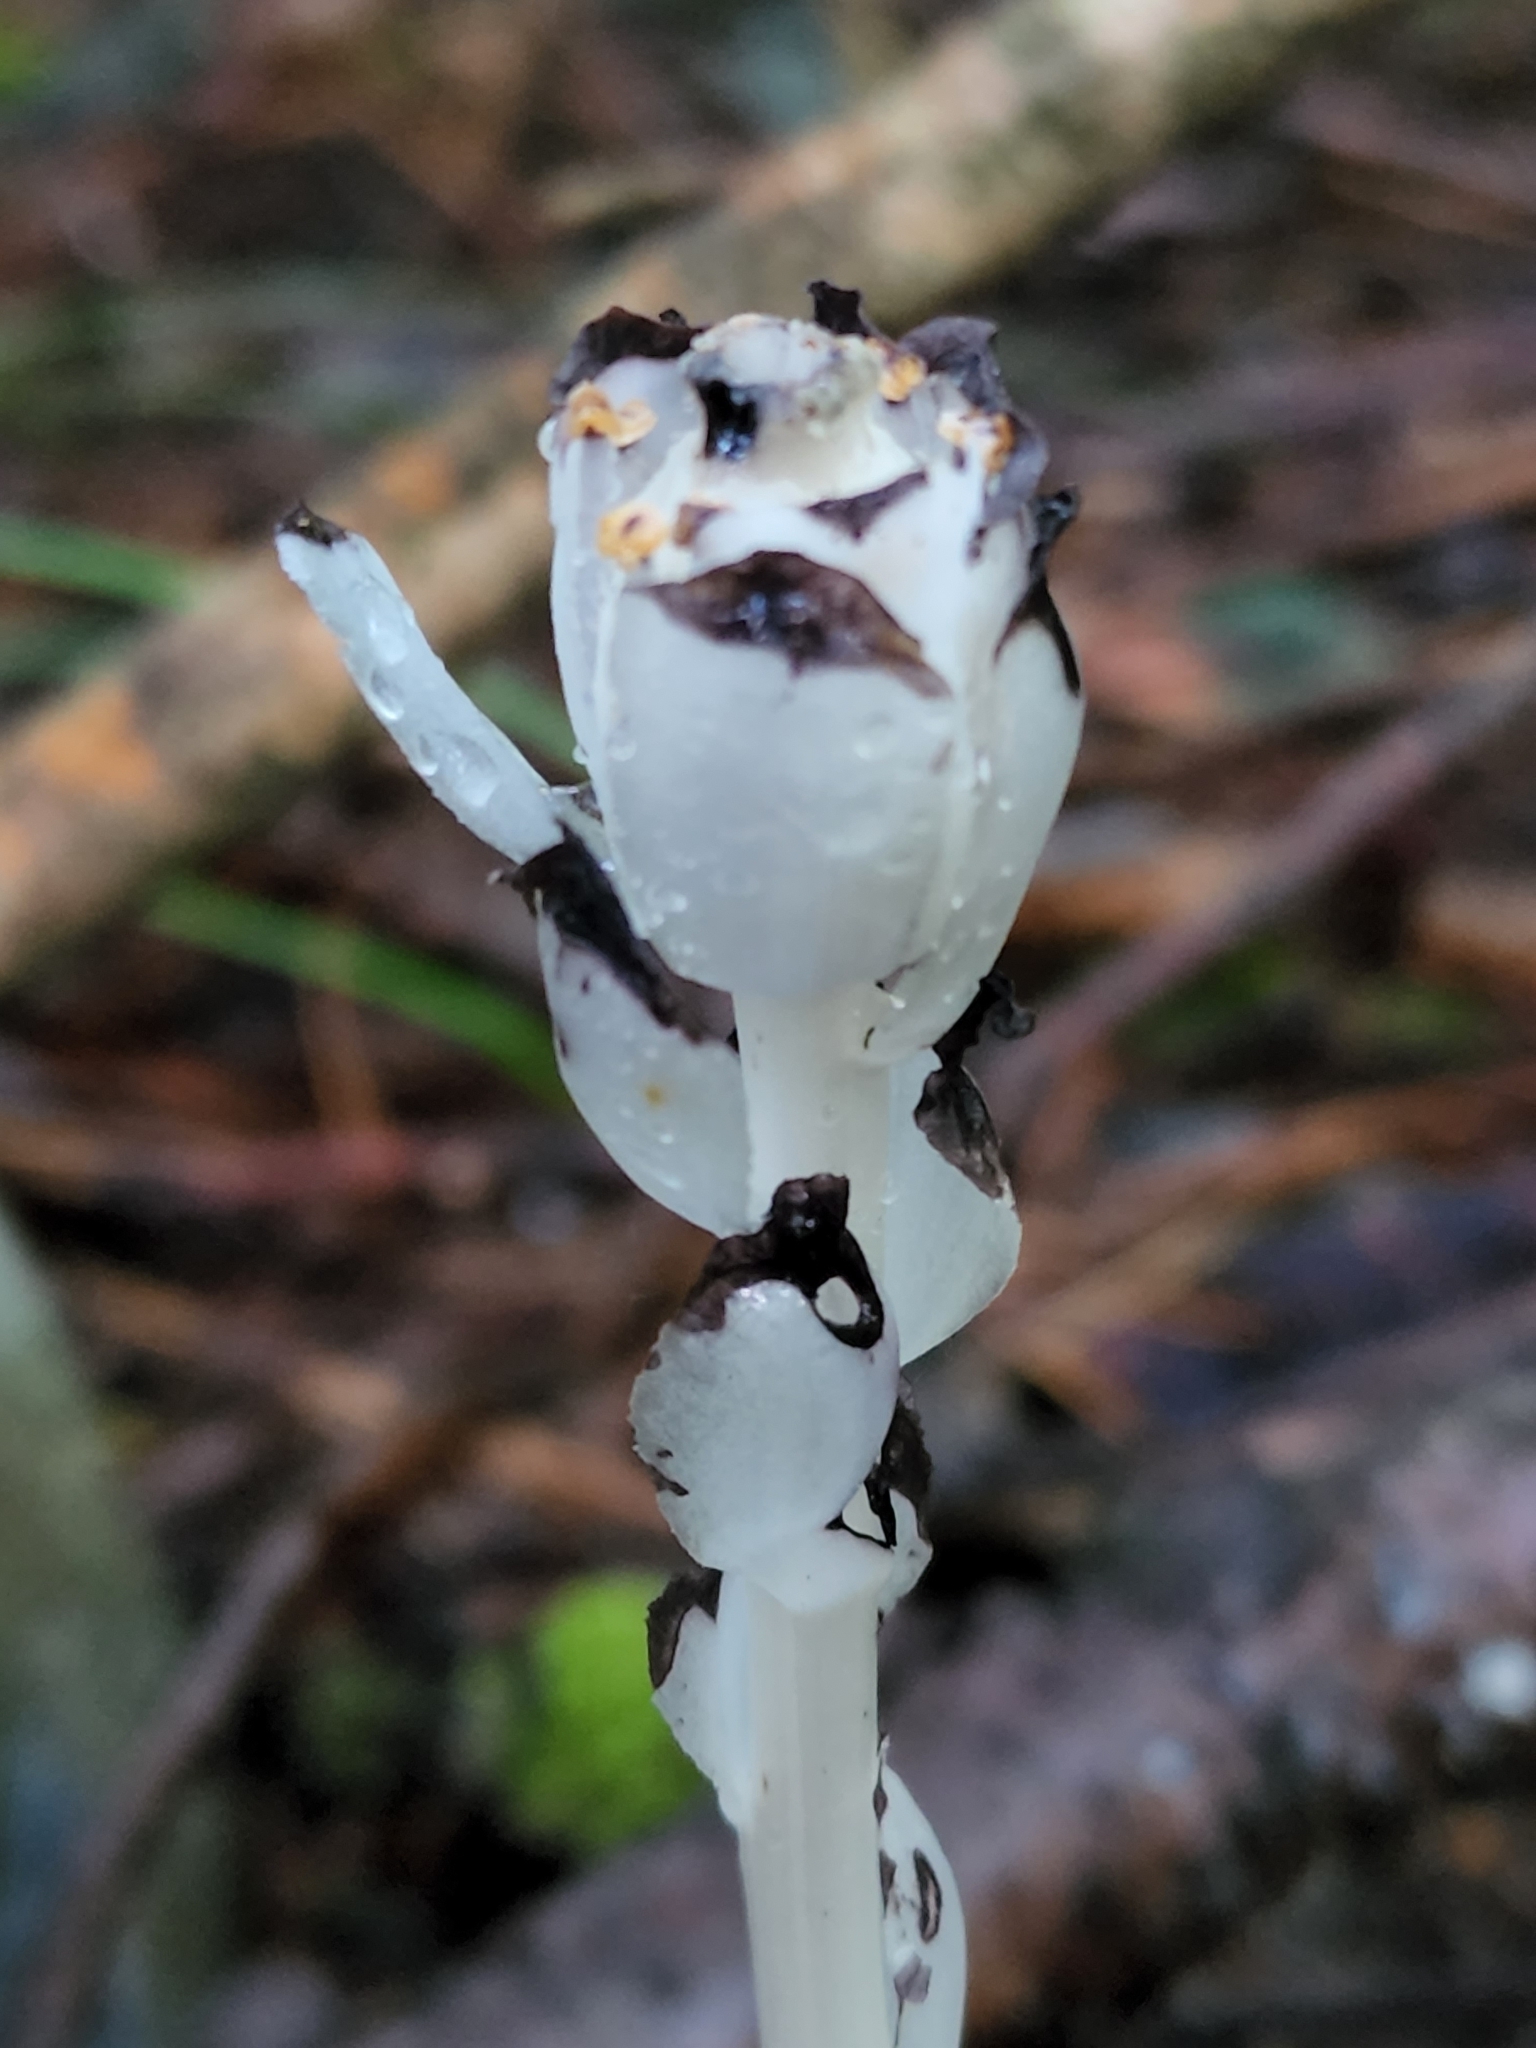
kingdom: Plantae
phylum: Tracheophyta
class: Magnoliopsida
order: Ericales
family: Ericaceae
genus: Monotropa
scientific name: Monotropa uniflora
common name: Convulsion root
